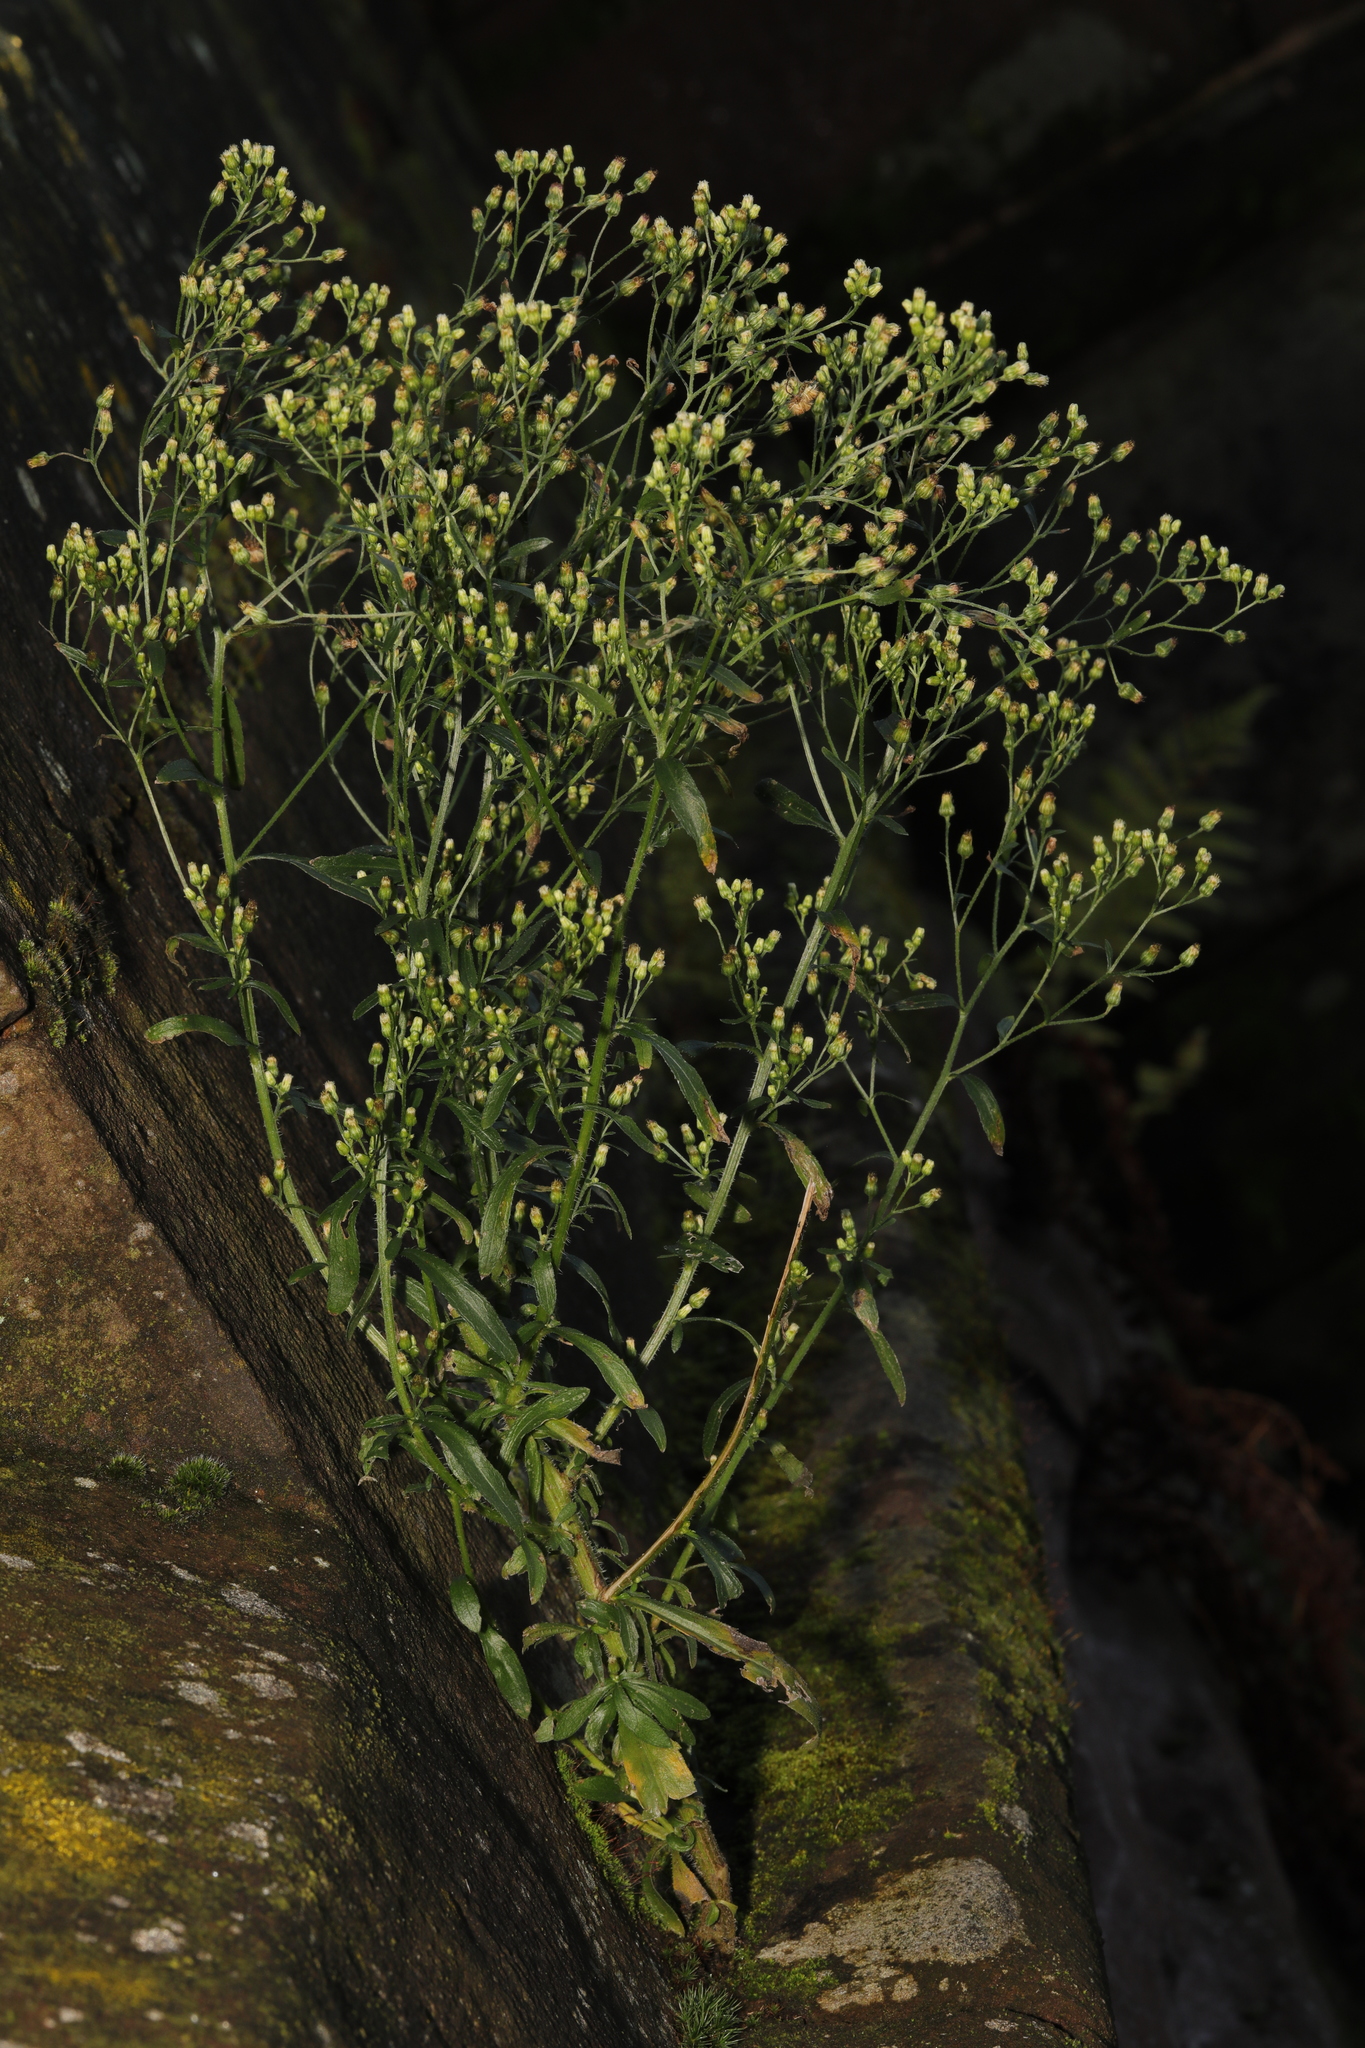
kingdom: Plantae
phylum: Tracheophyta
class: Magnoliopsida
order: Asterales
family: Asteraceae
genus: Erigeron
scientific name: Erigeron canadensis
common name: Canadian fleabane
